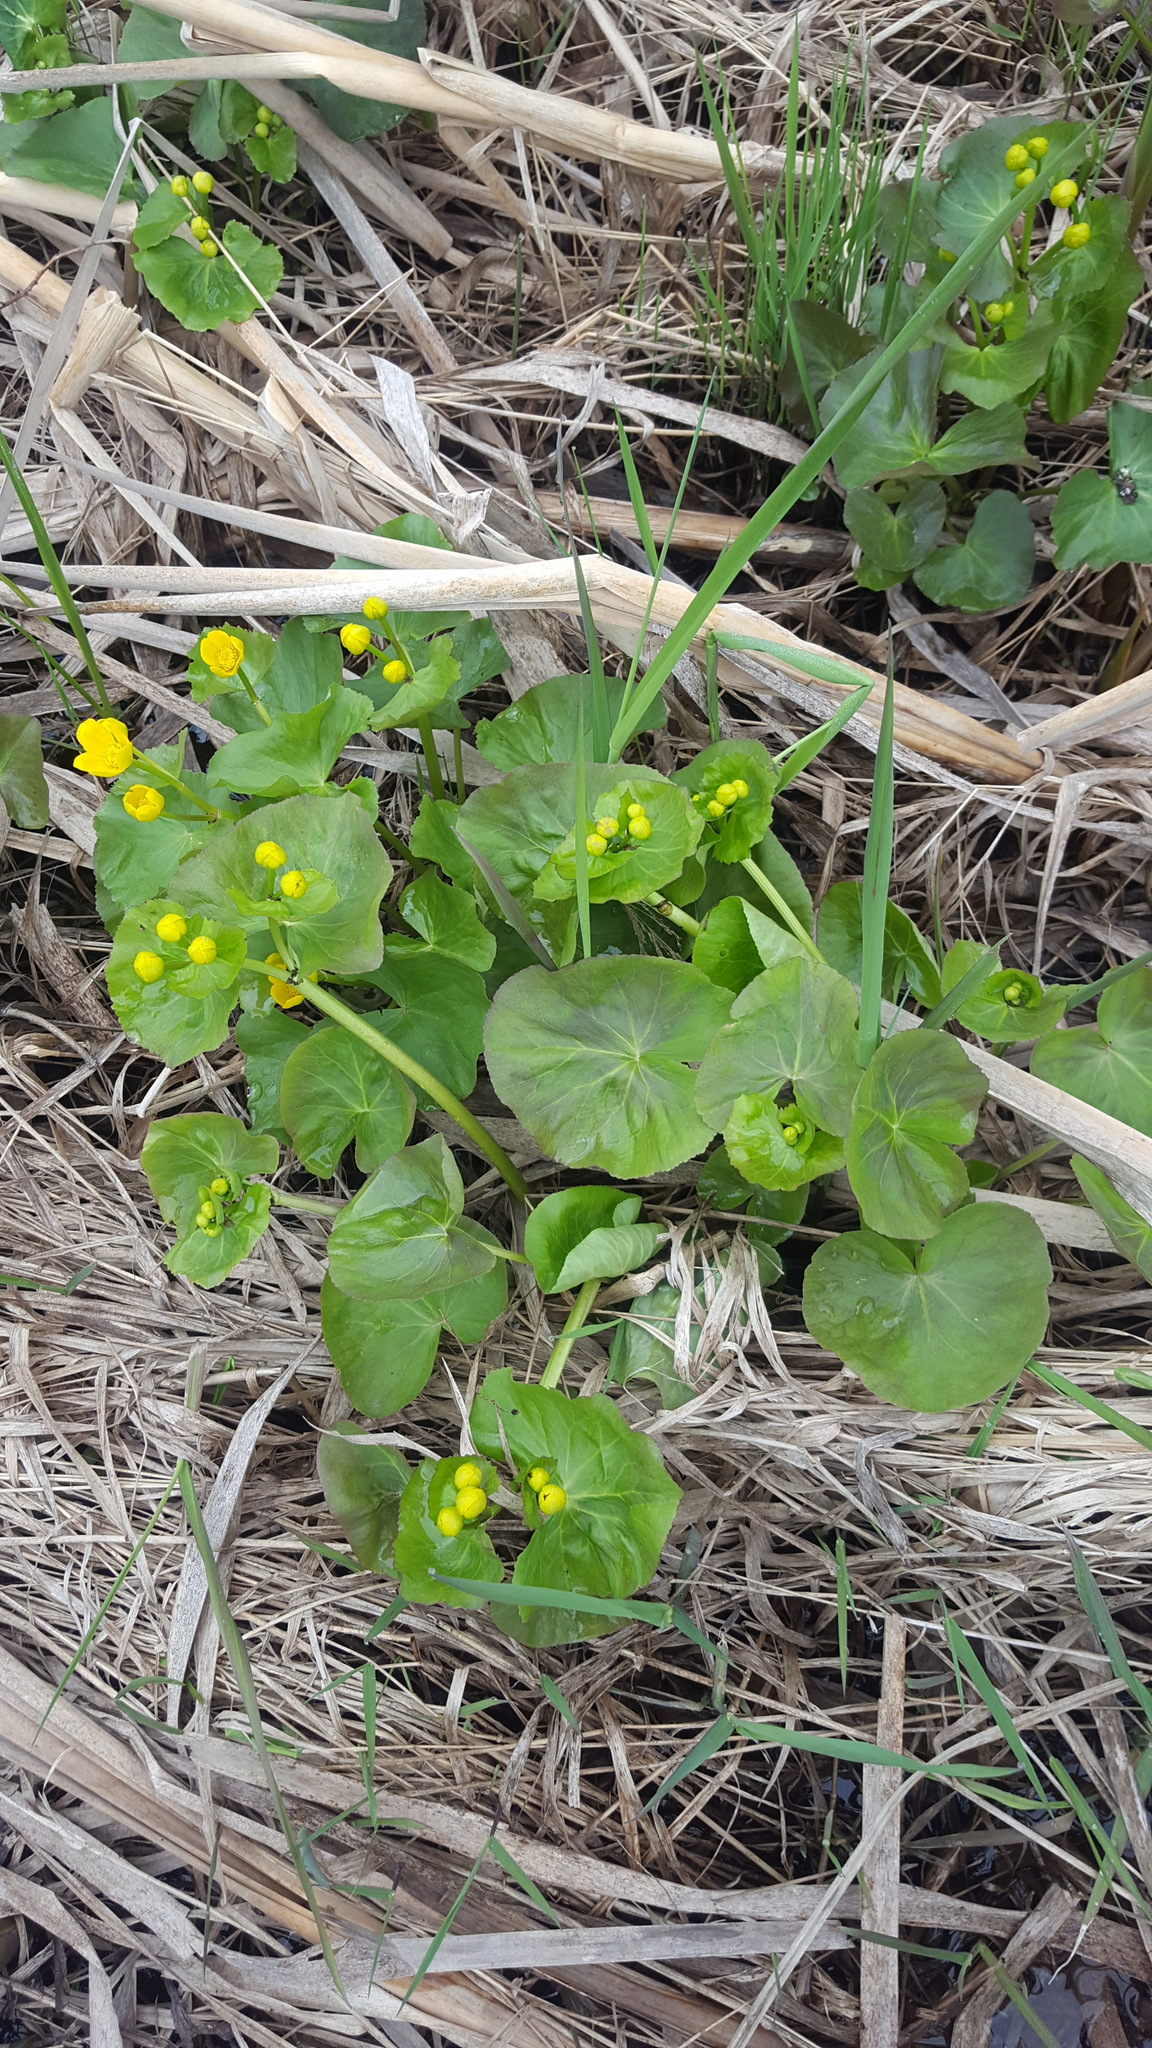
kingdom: Plantae
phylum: Tracheophyta
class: Magnoliopsida
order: Ranunculales
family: Ranunculaceae
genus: Caltha
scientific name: Caltha palustris
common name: Marsh marigold
